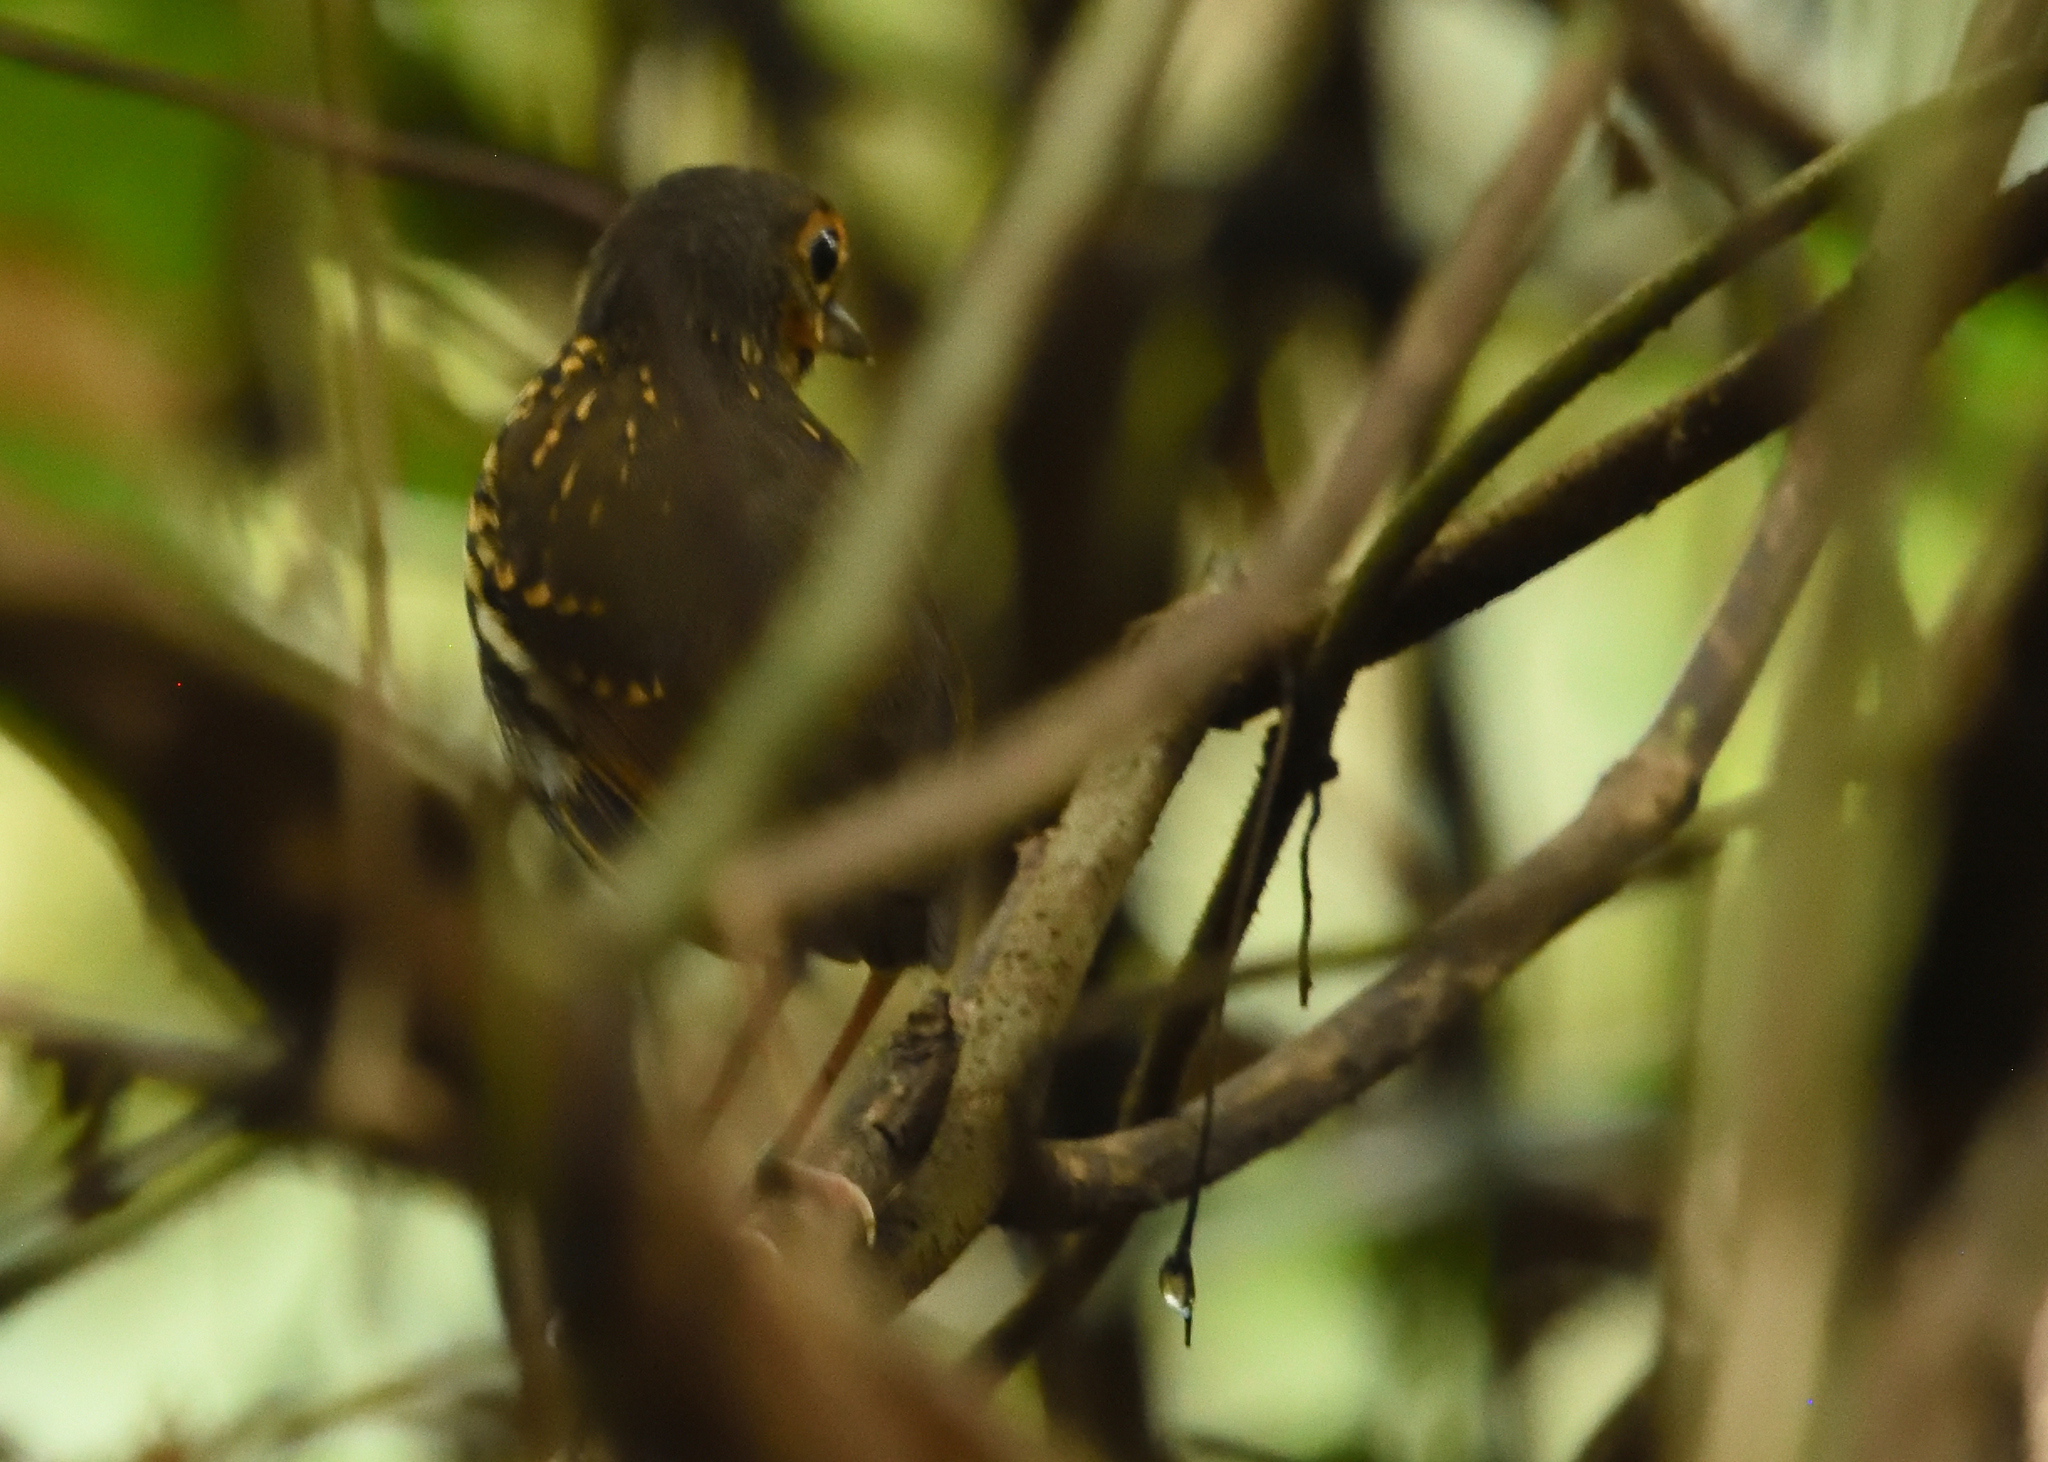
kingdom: Animalia
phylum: Chordata
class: Aves
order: Passeriformes
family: Grallariidae
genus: Hylopezus
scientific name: Hylopezus perspicillatus
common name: Streak-chested antpitta
